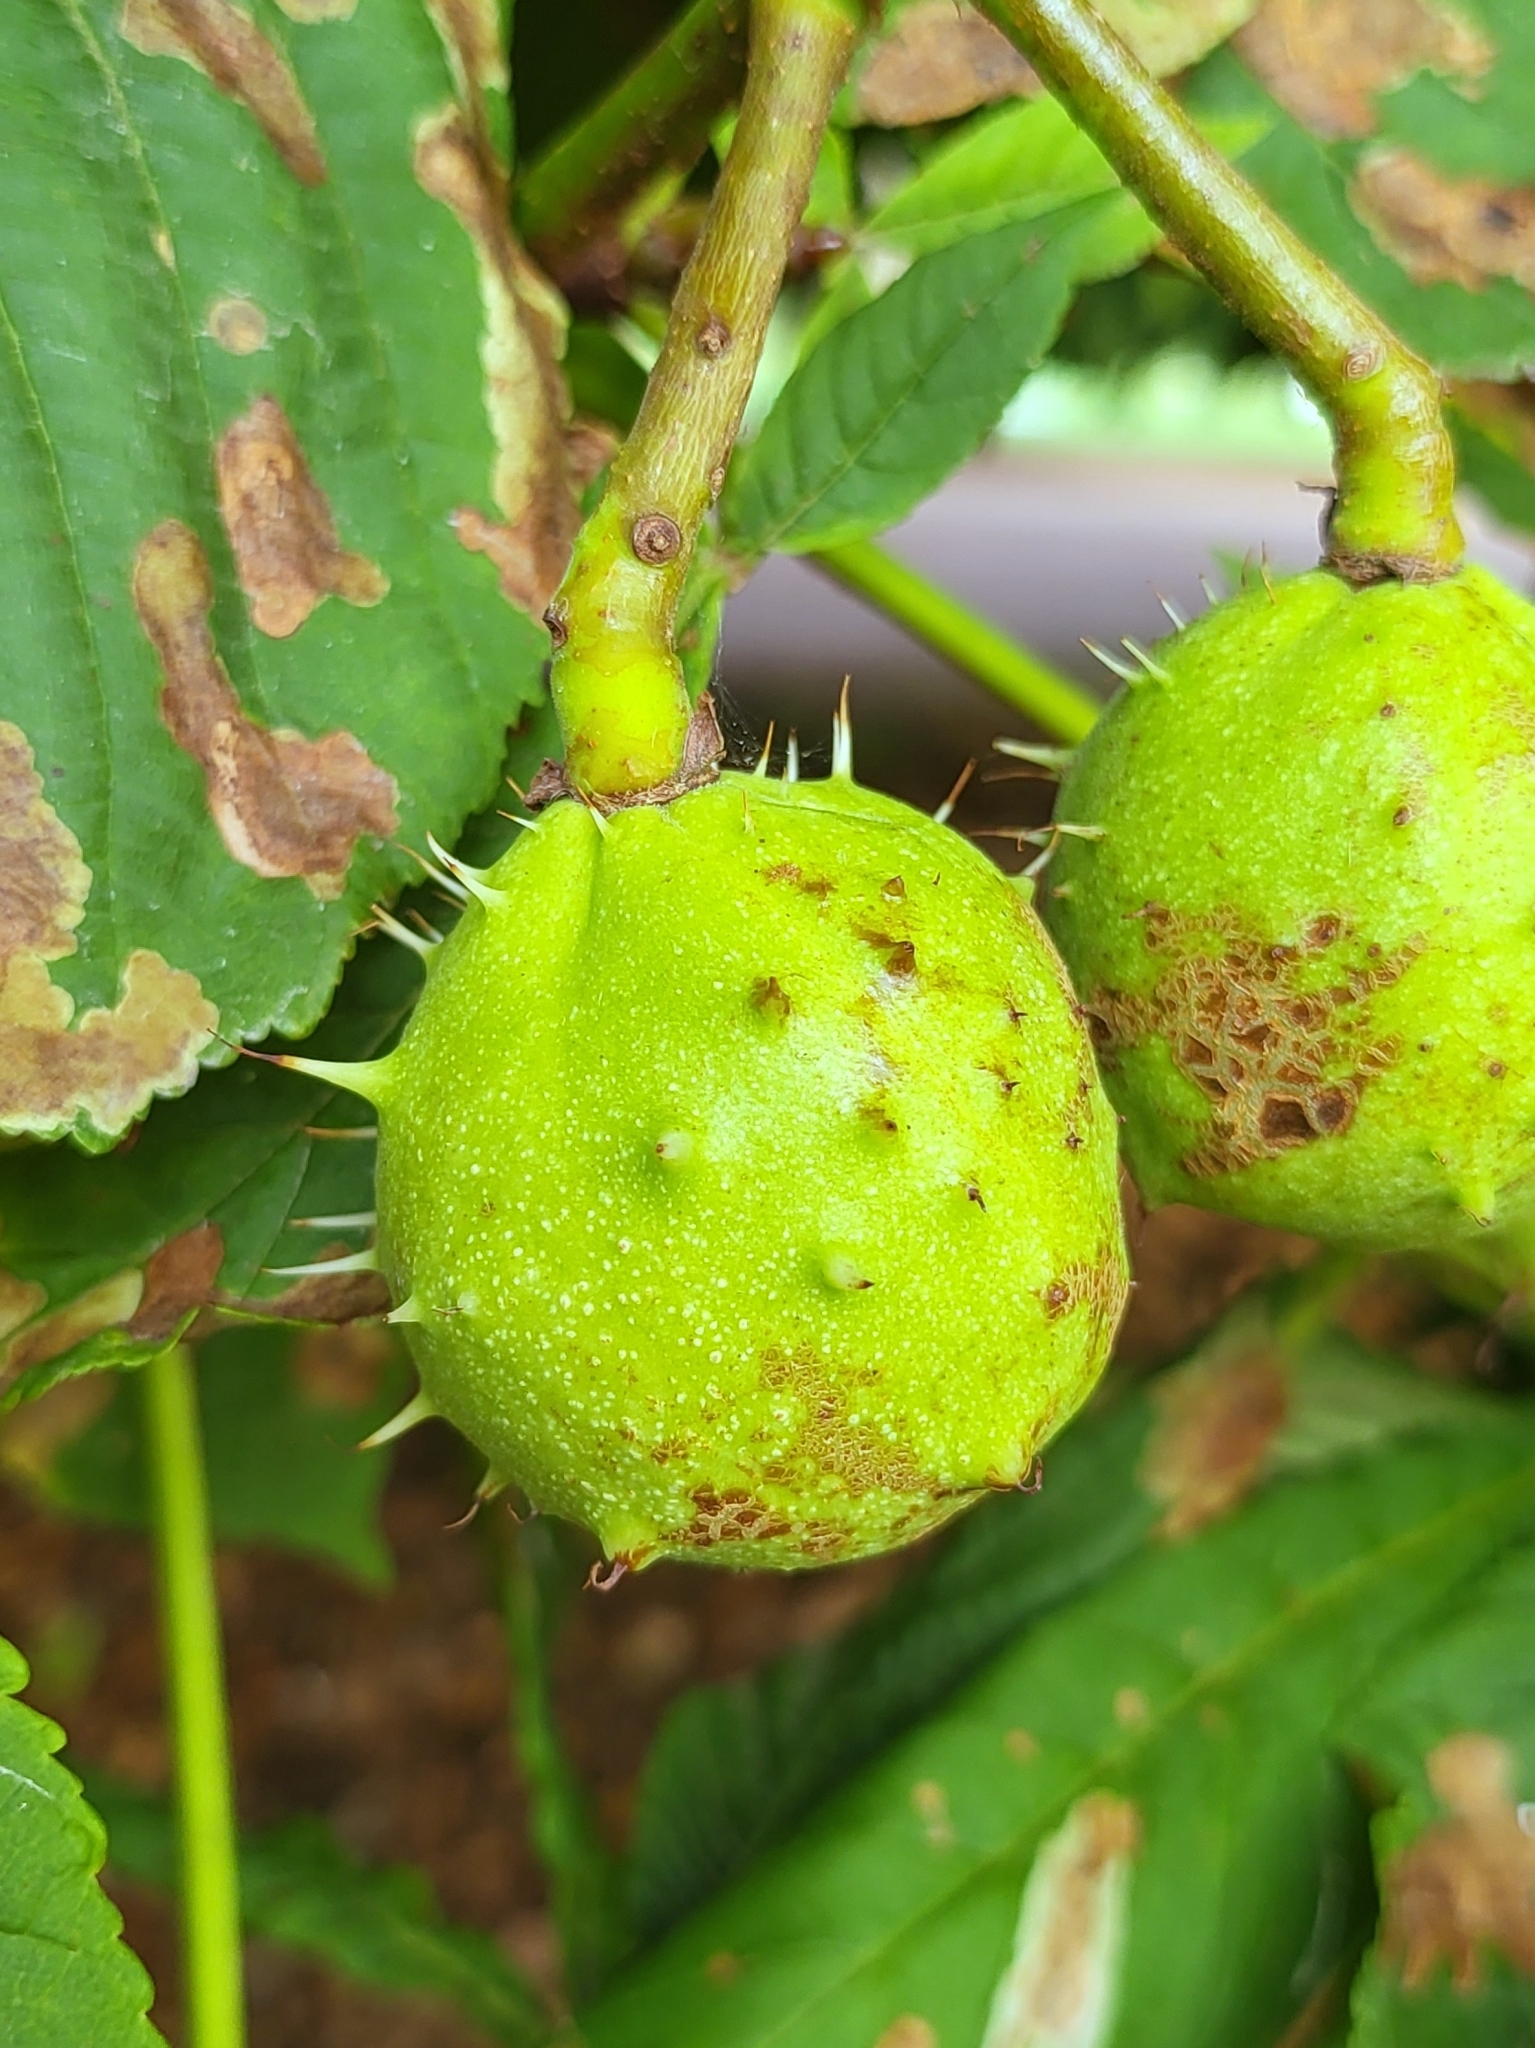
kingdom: Plantae
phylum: Tracheophyta
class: Magnoliopsida
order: Sapindales
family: Sapindaceae
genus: Aesculus
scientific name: Aesculus hippocastanum
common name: Horse-chestnut
